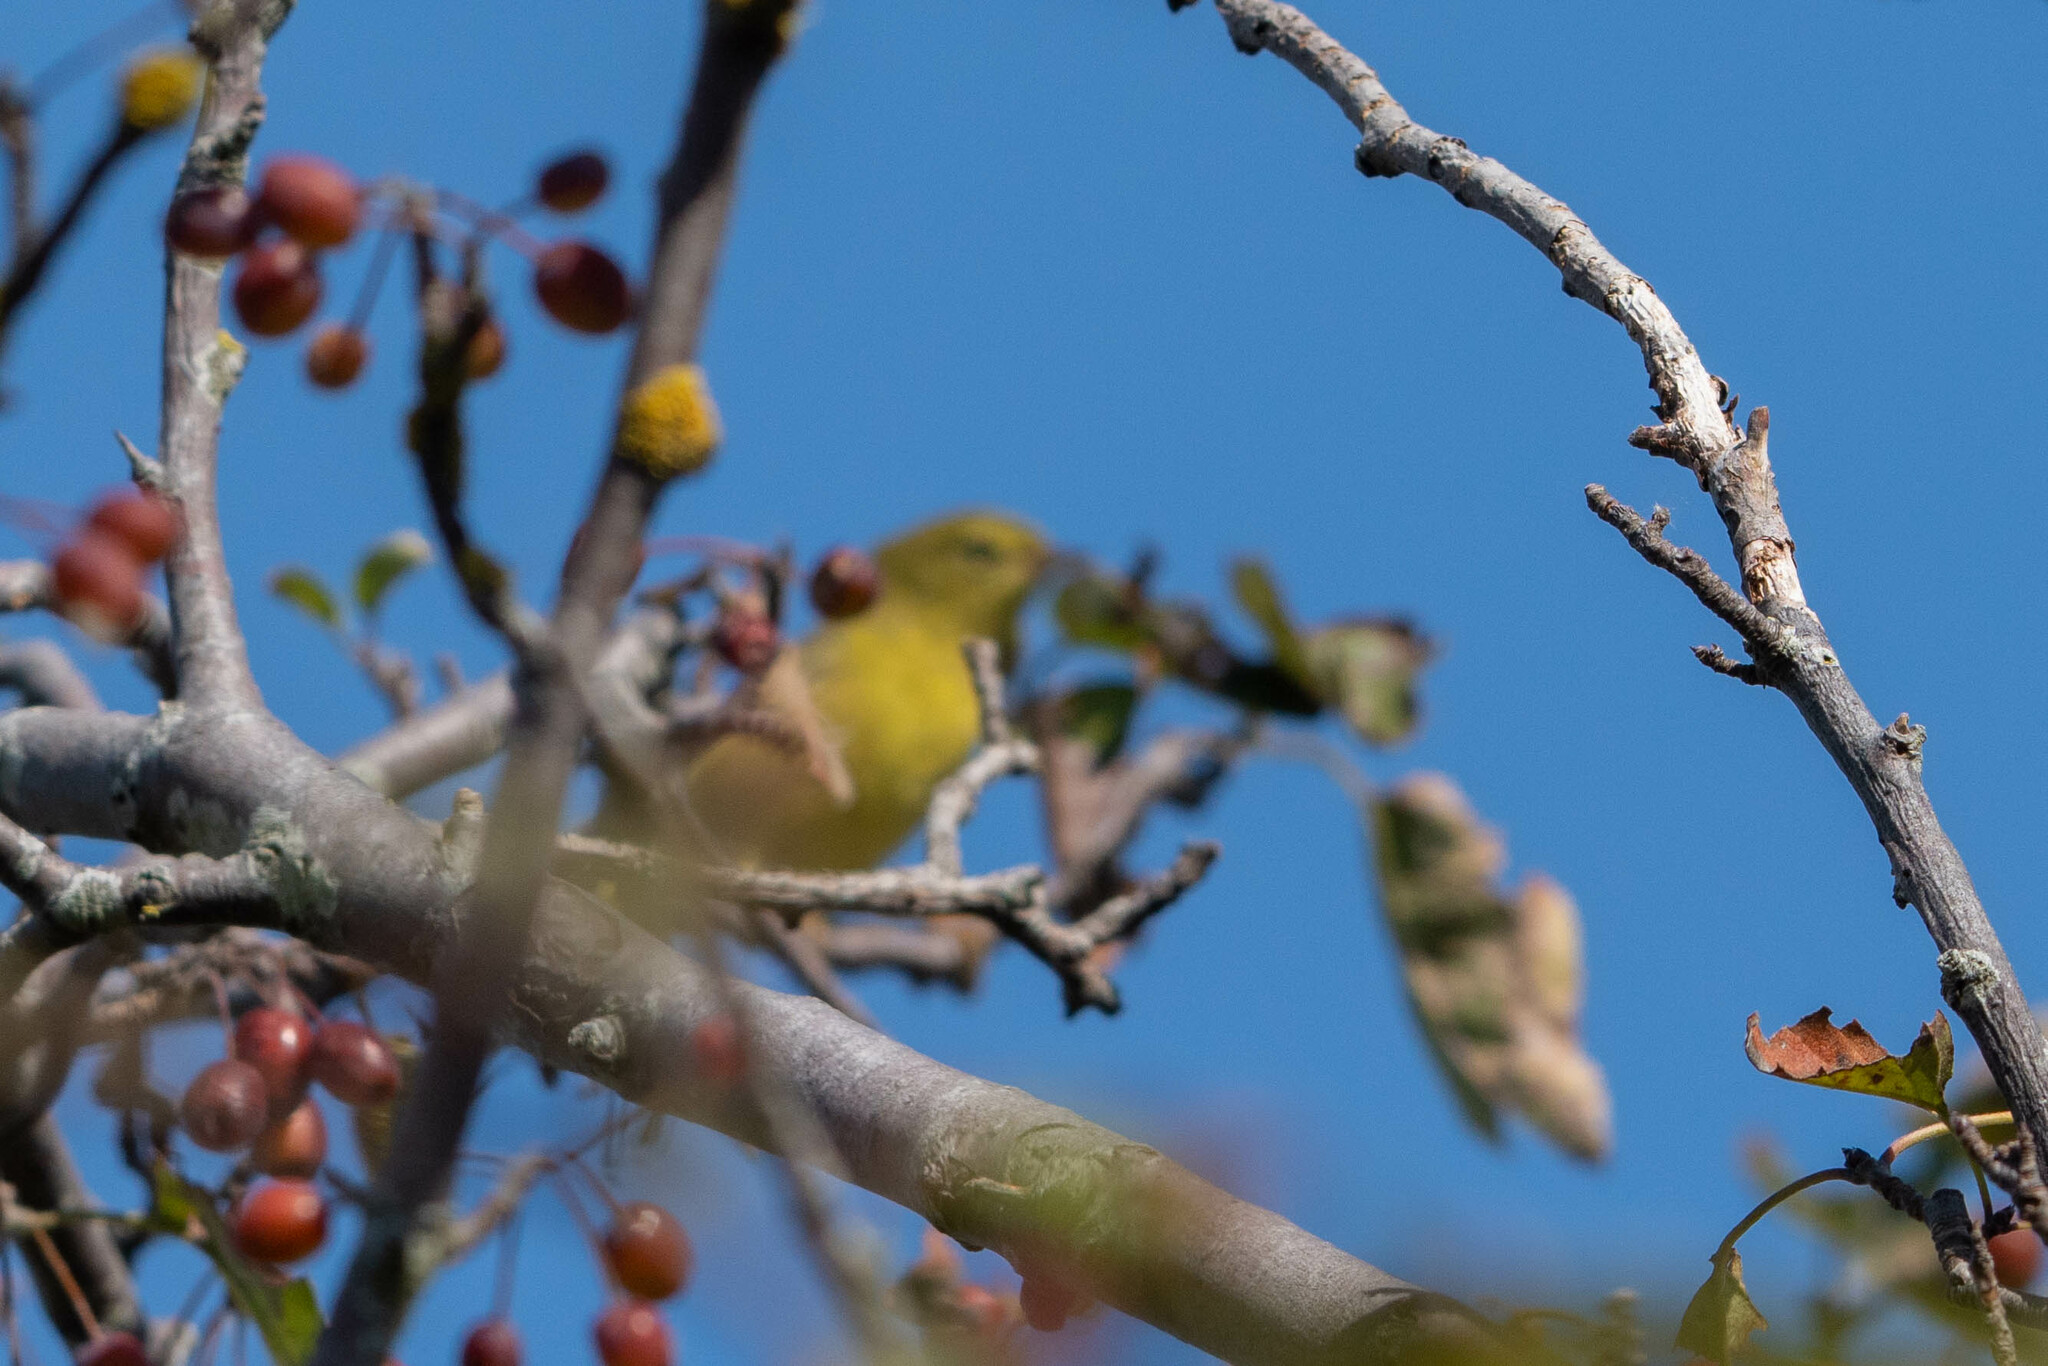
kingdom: Animalia
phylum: Chordata
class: Aves
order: Passeriformes
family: Parulidae
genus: Leiothlypis
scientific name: Leiothlypis celata
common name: Orange-crowned warbler
